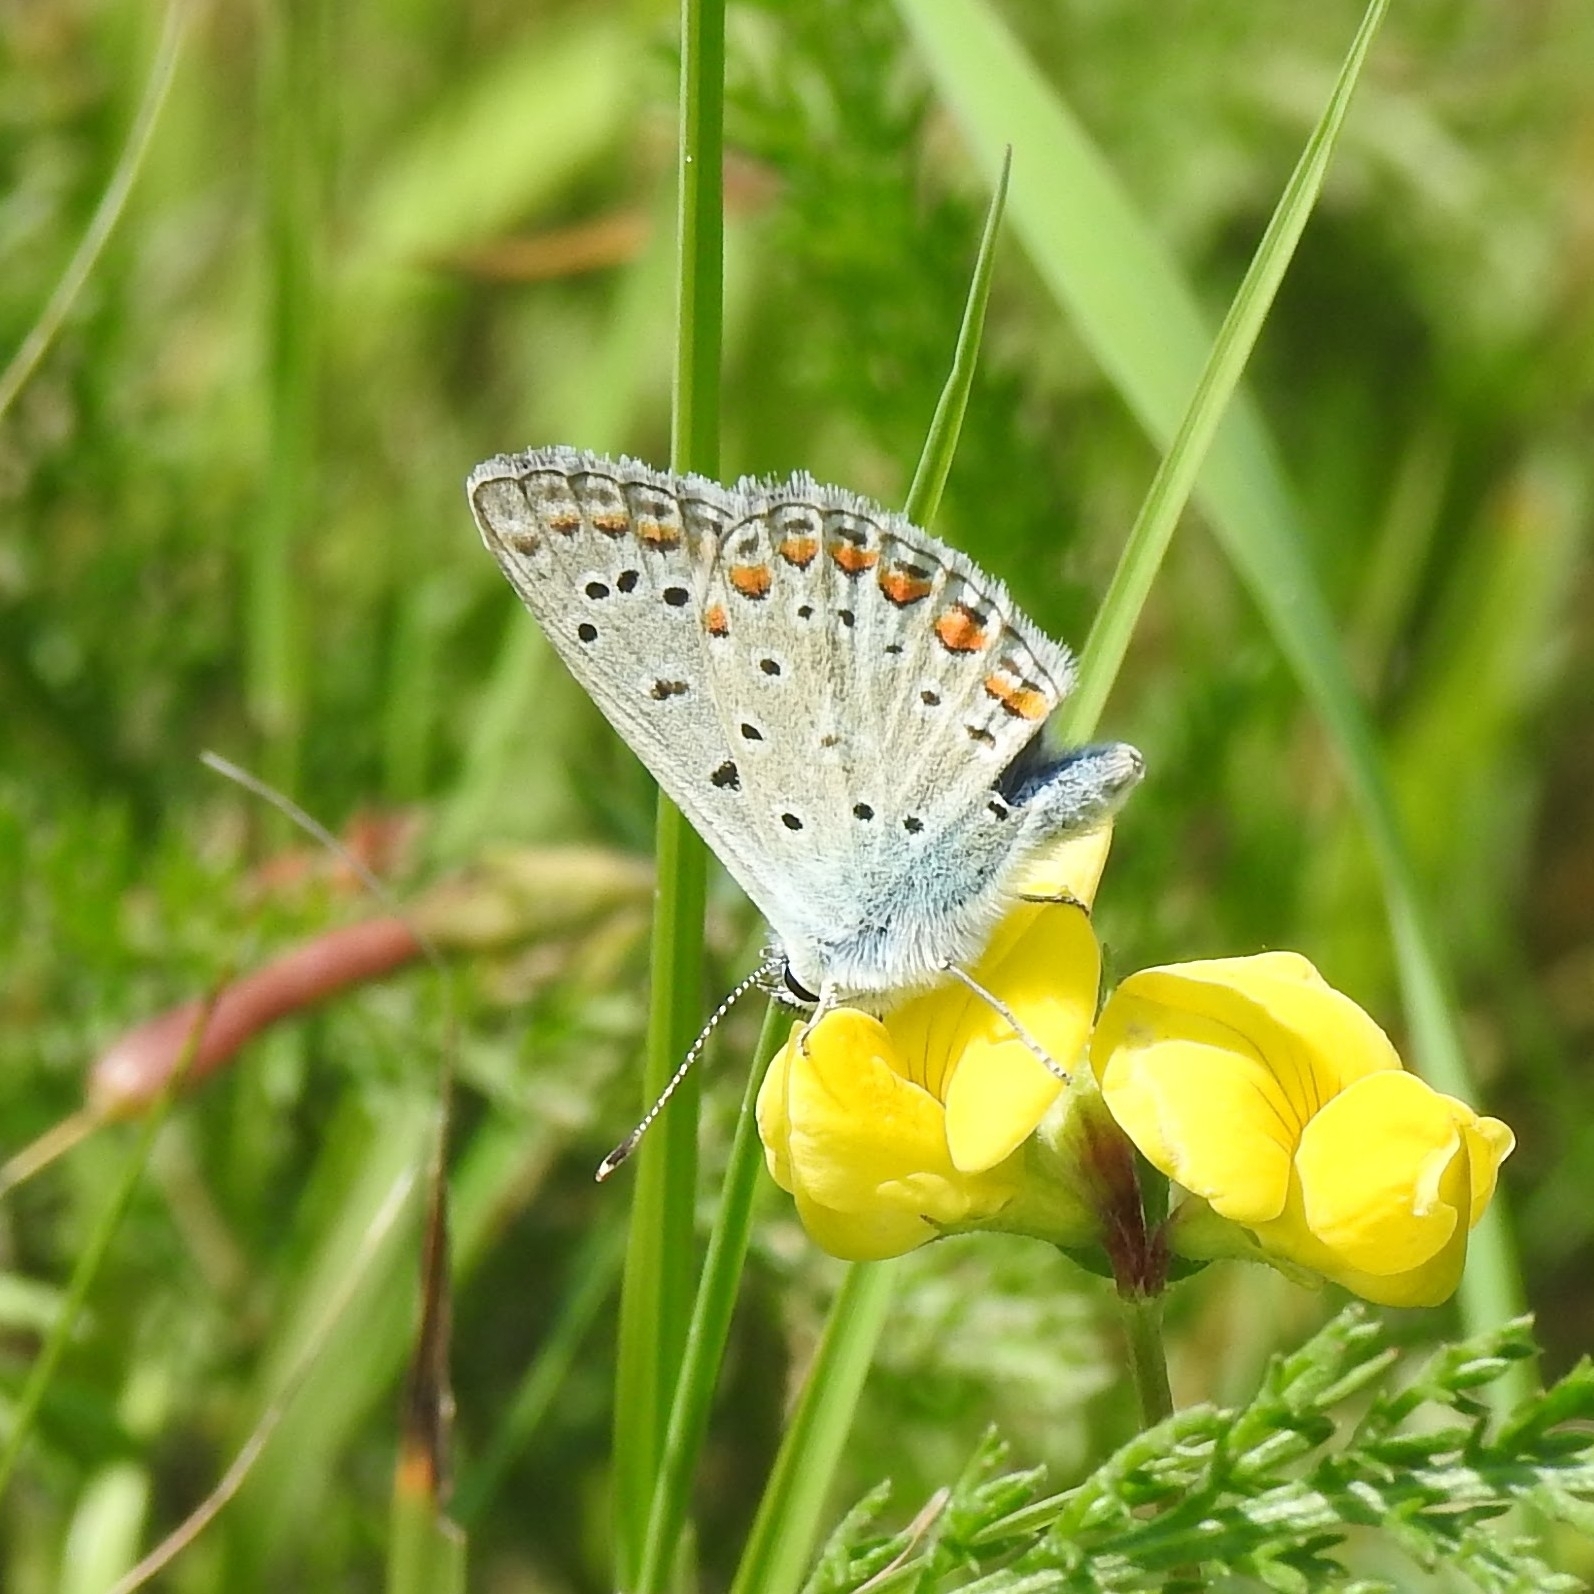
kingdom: Animalia
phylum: Arthropoda
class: Insecta
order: Lepidoptera
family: Lycaenidae
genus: Polyommatus
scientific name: Polyommatus icarus
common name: Common blue
